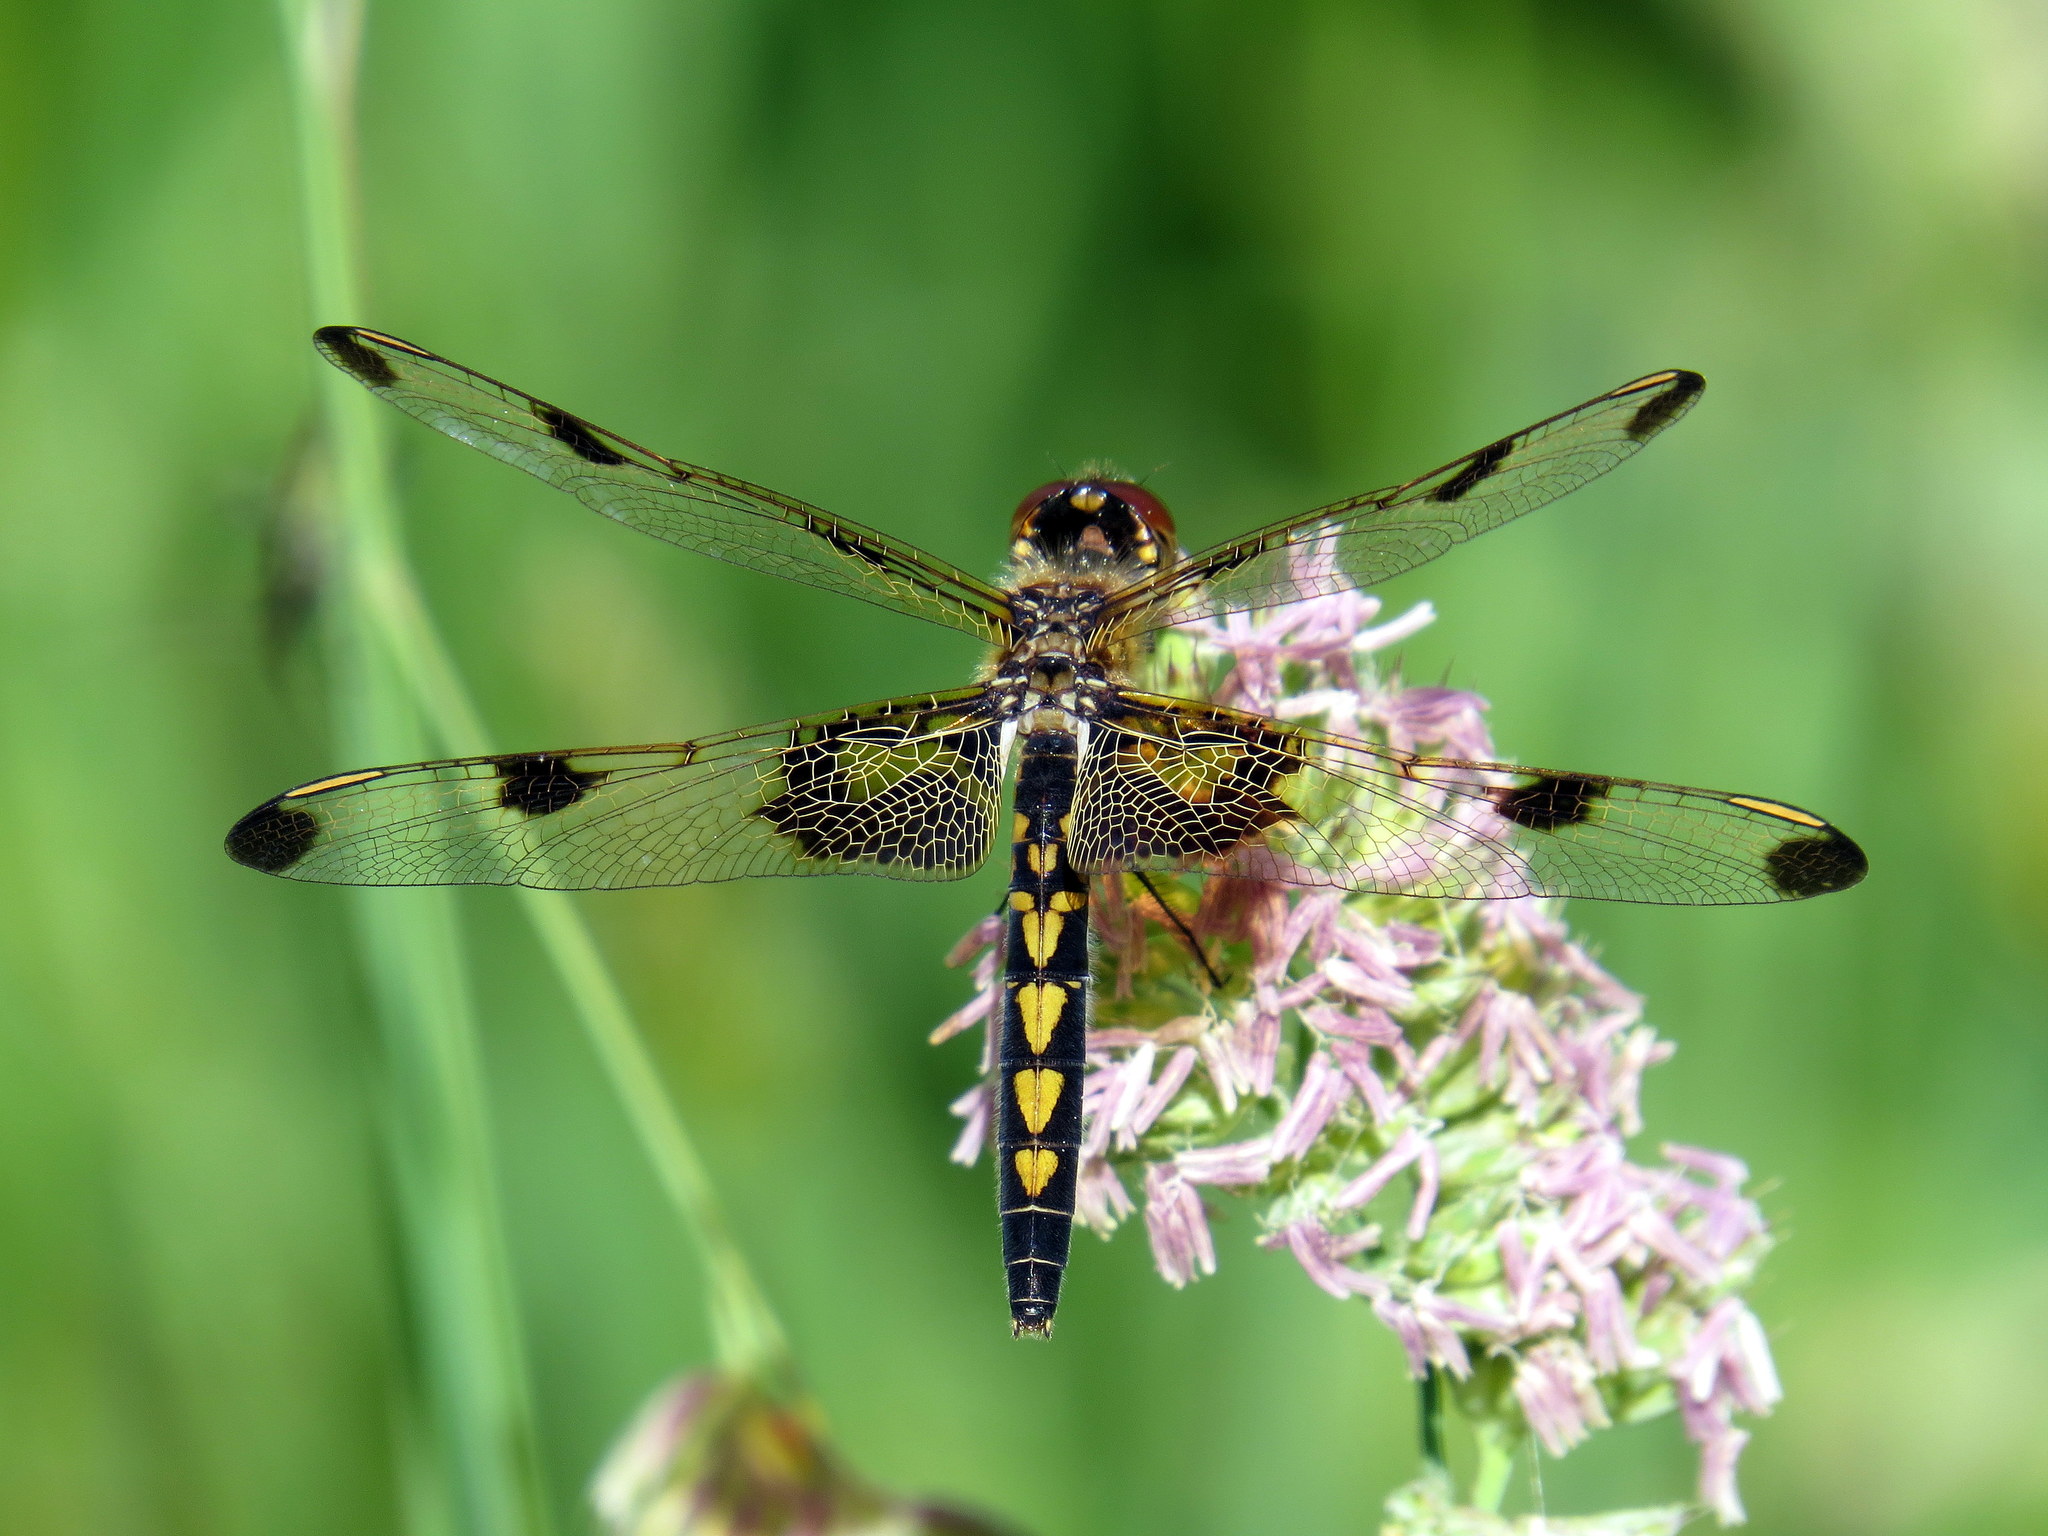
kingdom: Animalia
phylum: Arthropoda
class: Insecta
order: Odonata
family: Libellulidae
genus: Celithemis
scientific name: Celithemis elisa
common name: Calico pennant
